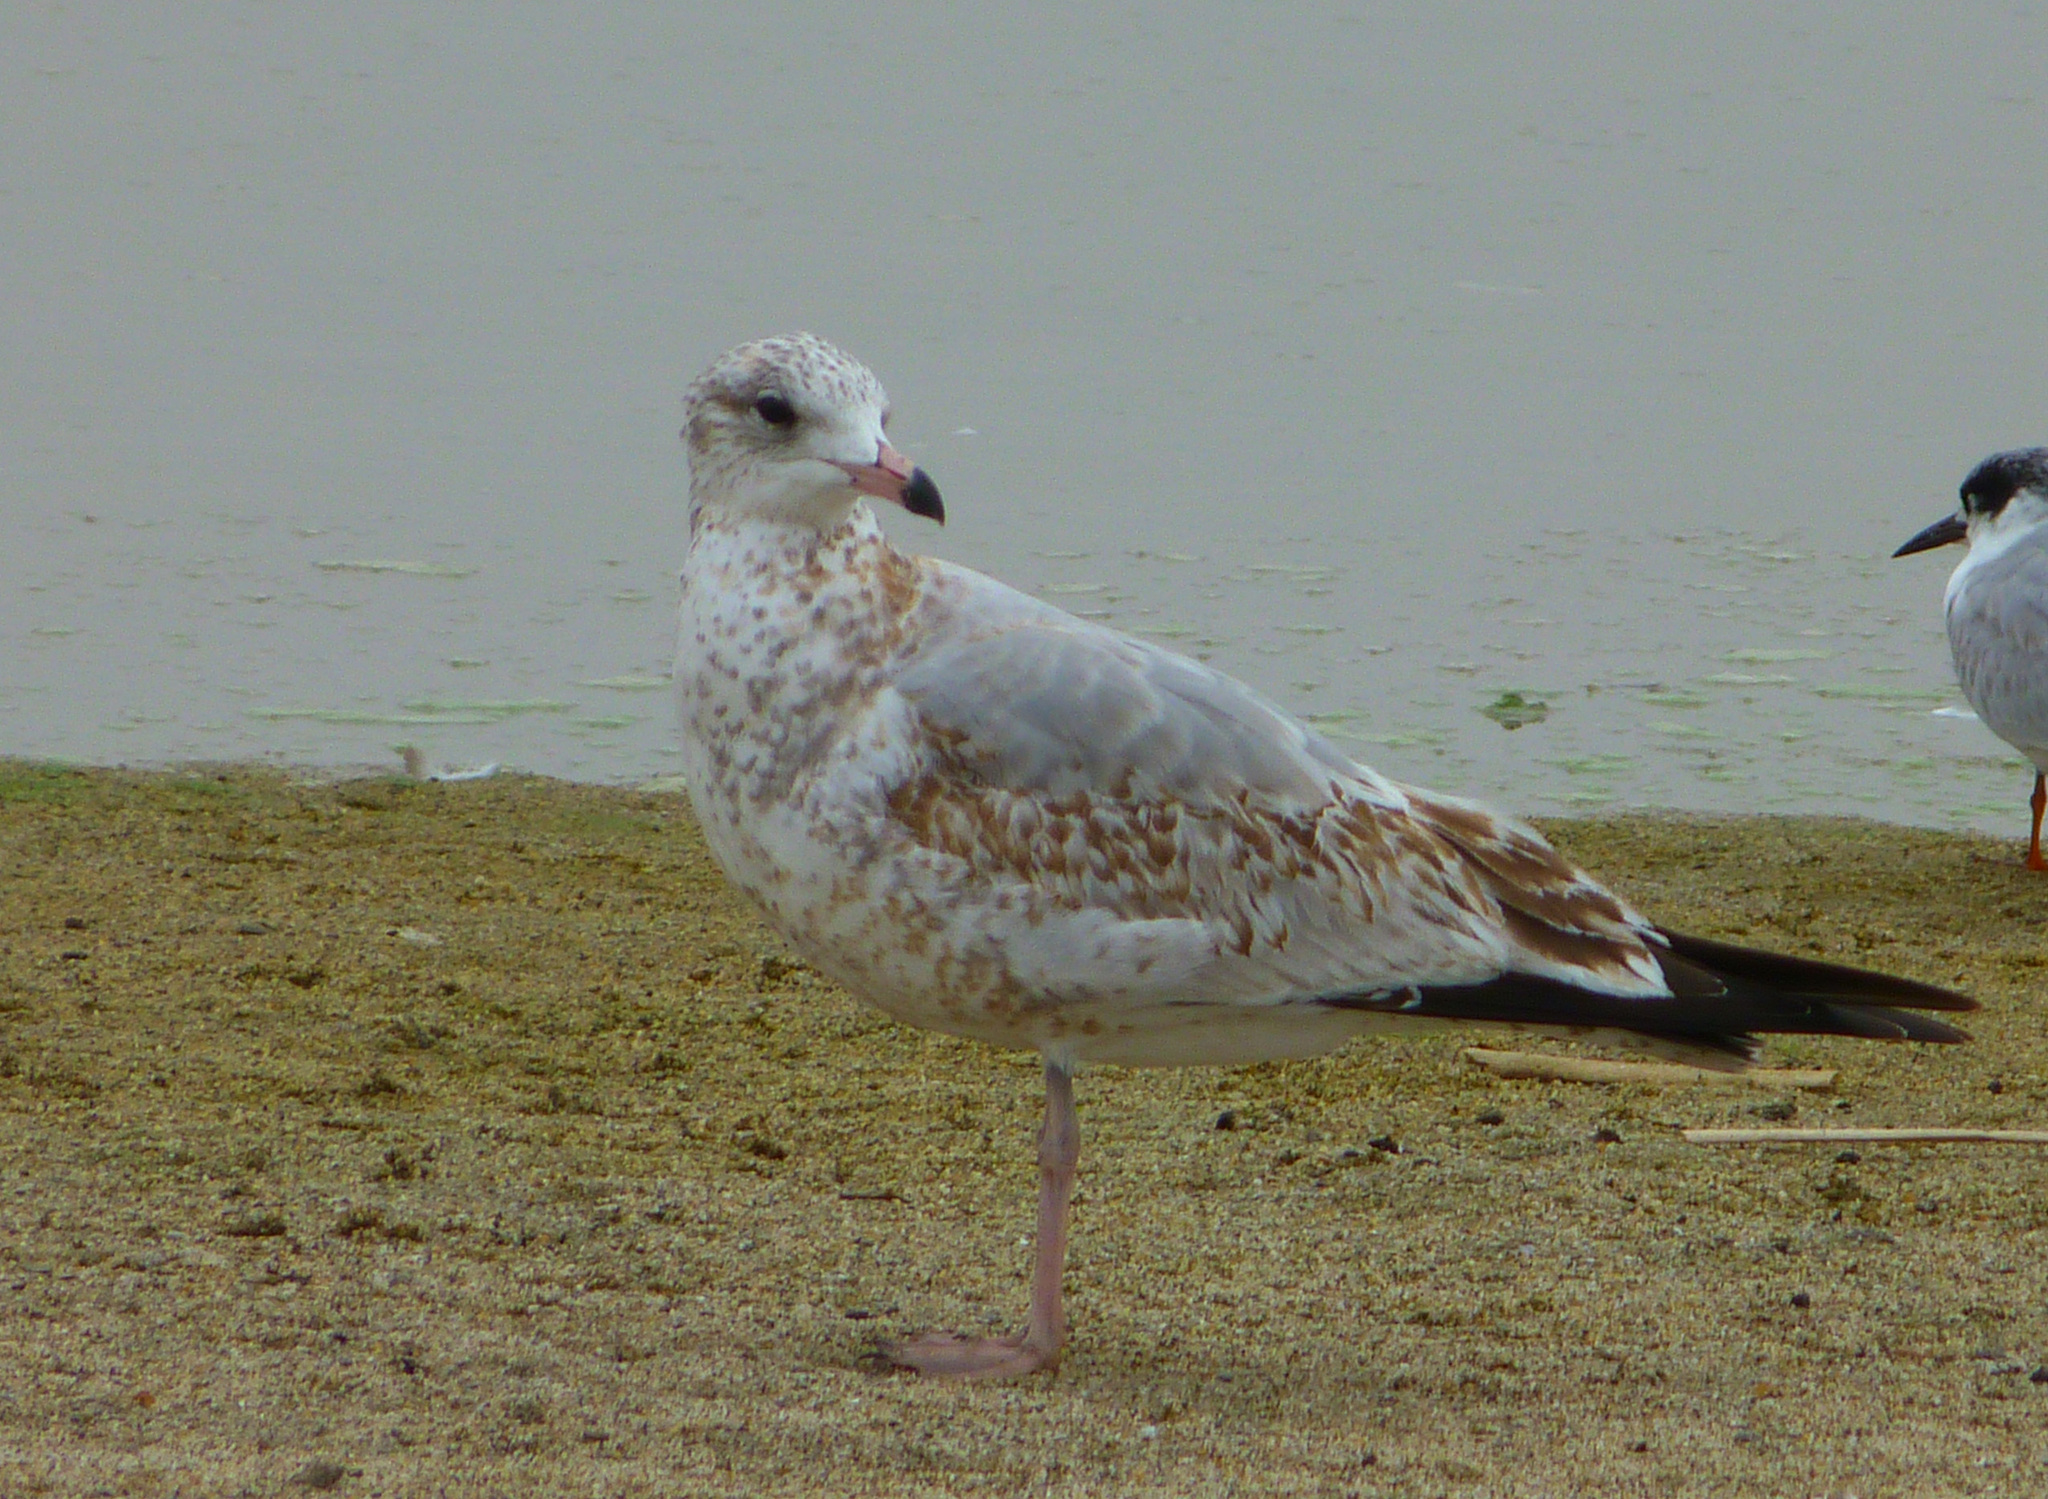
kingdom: Animalia
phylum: Chordata
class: Aves
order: Charadriiformes
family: Laridae
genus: Larus
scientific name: Larus delawarensis
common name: Ring-billed gull
